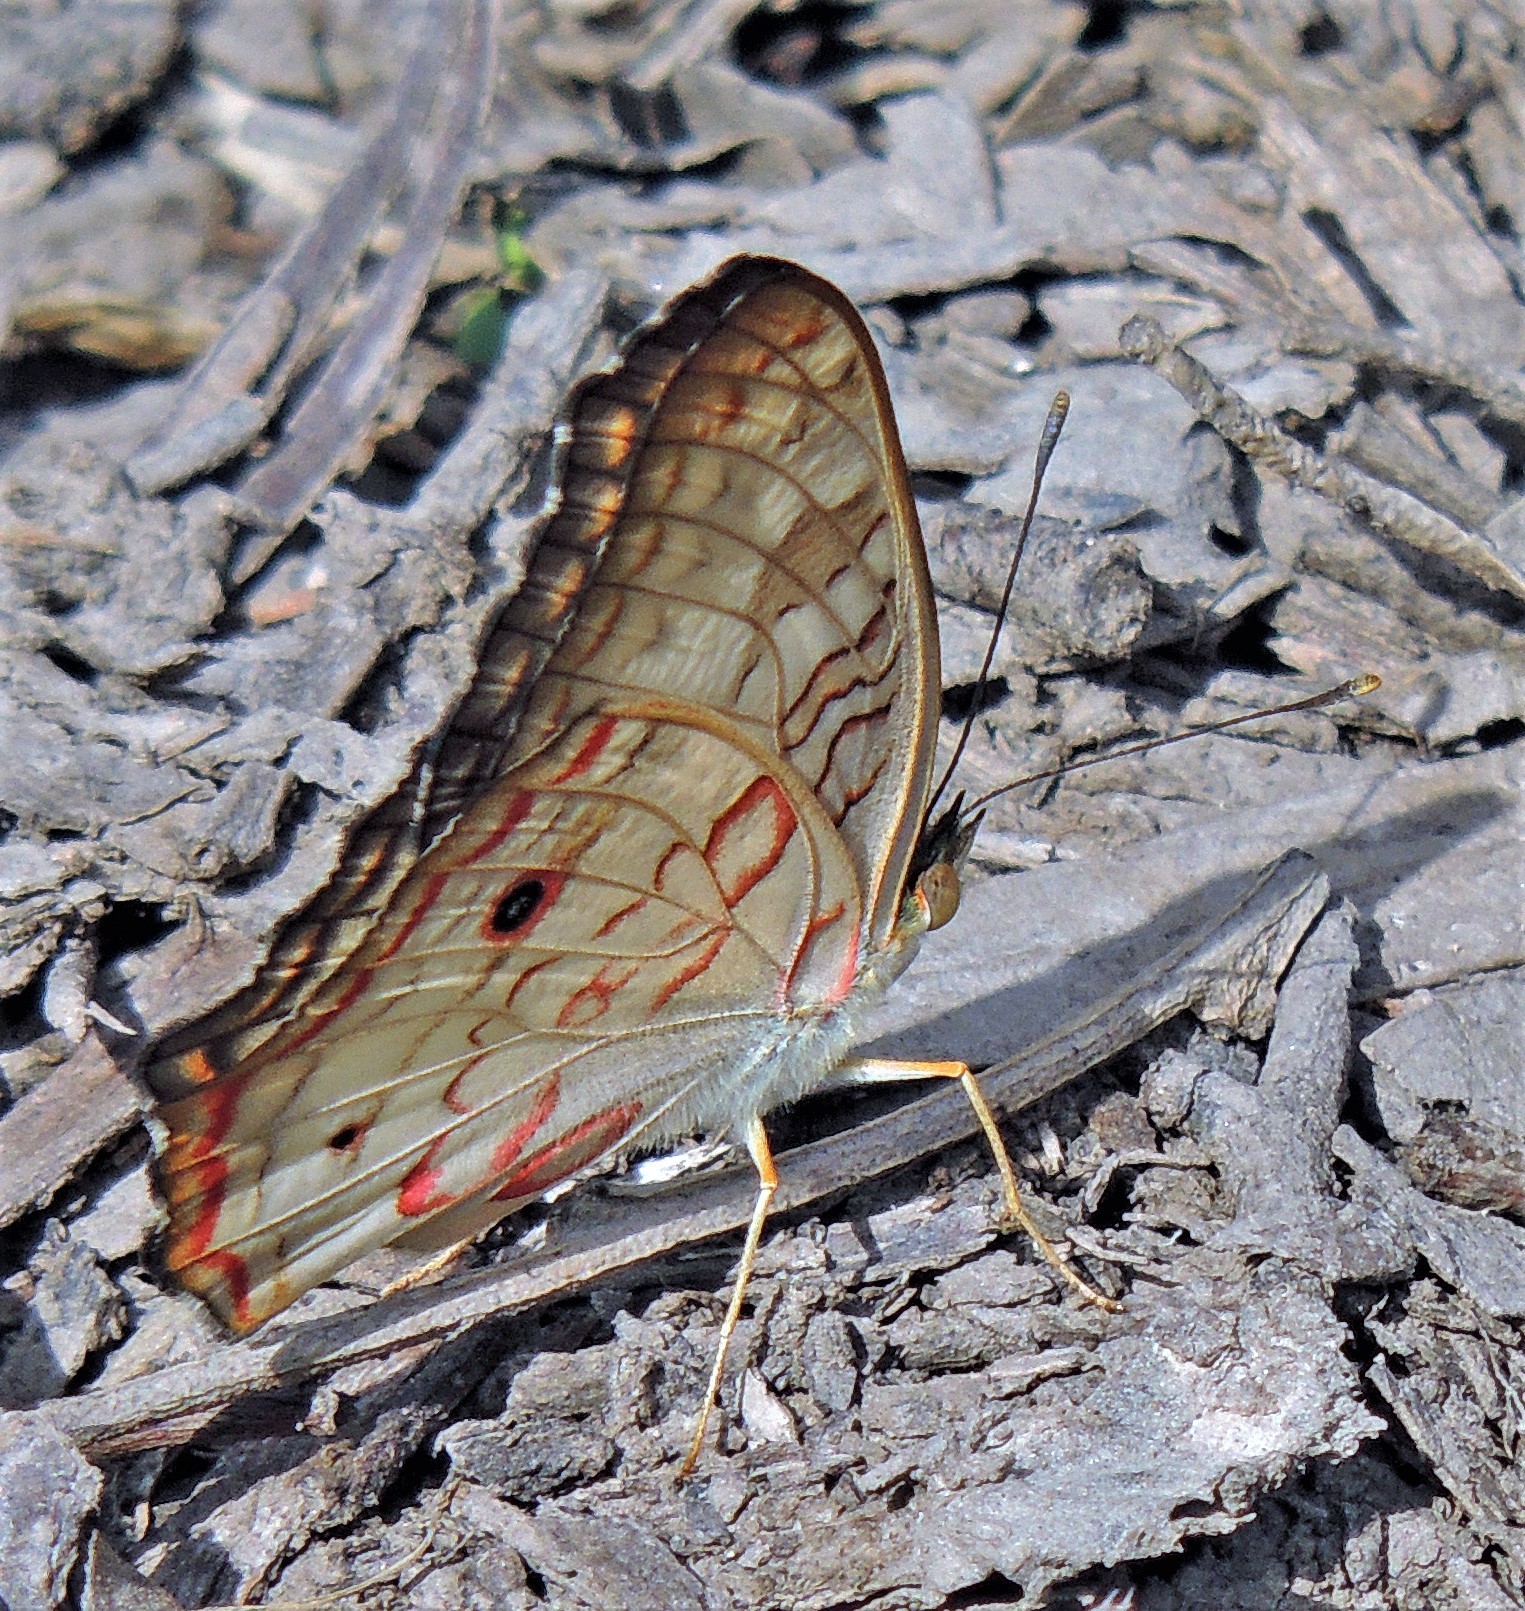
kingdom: Animalia
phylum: Arthropoda
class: Insecta
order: Lepidoptera
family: Nymphalidae
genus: Anartia
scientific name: Anartia jatrophae
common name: White peacock
